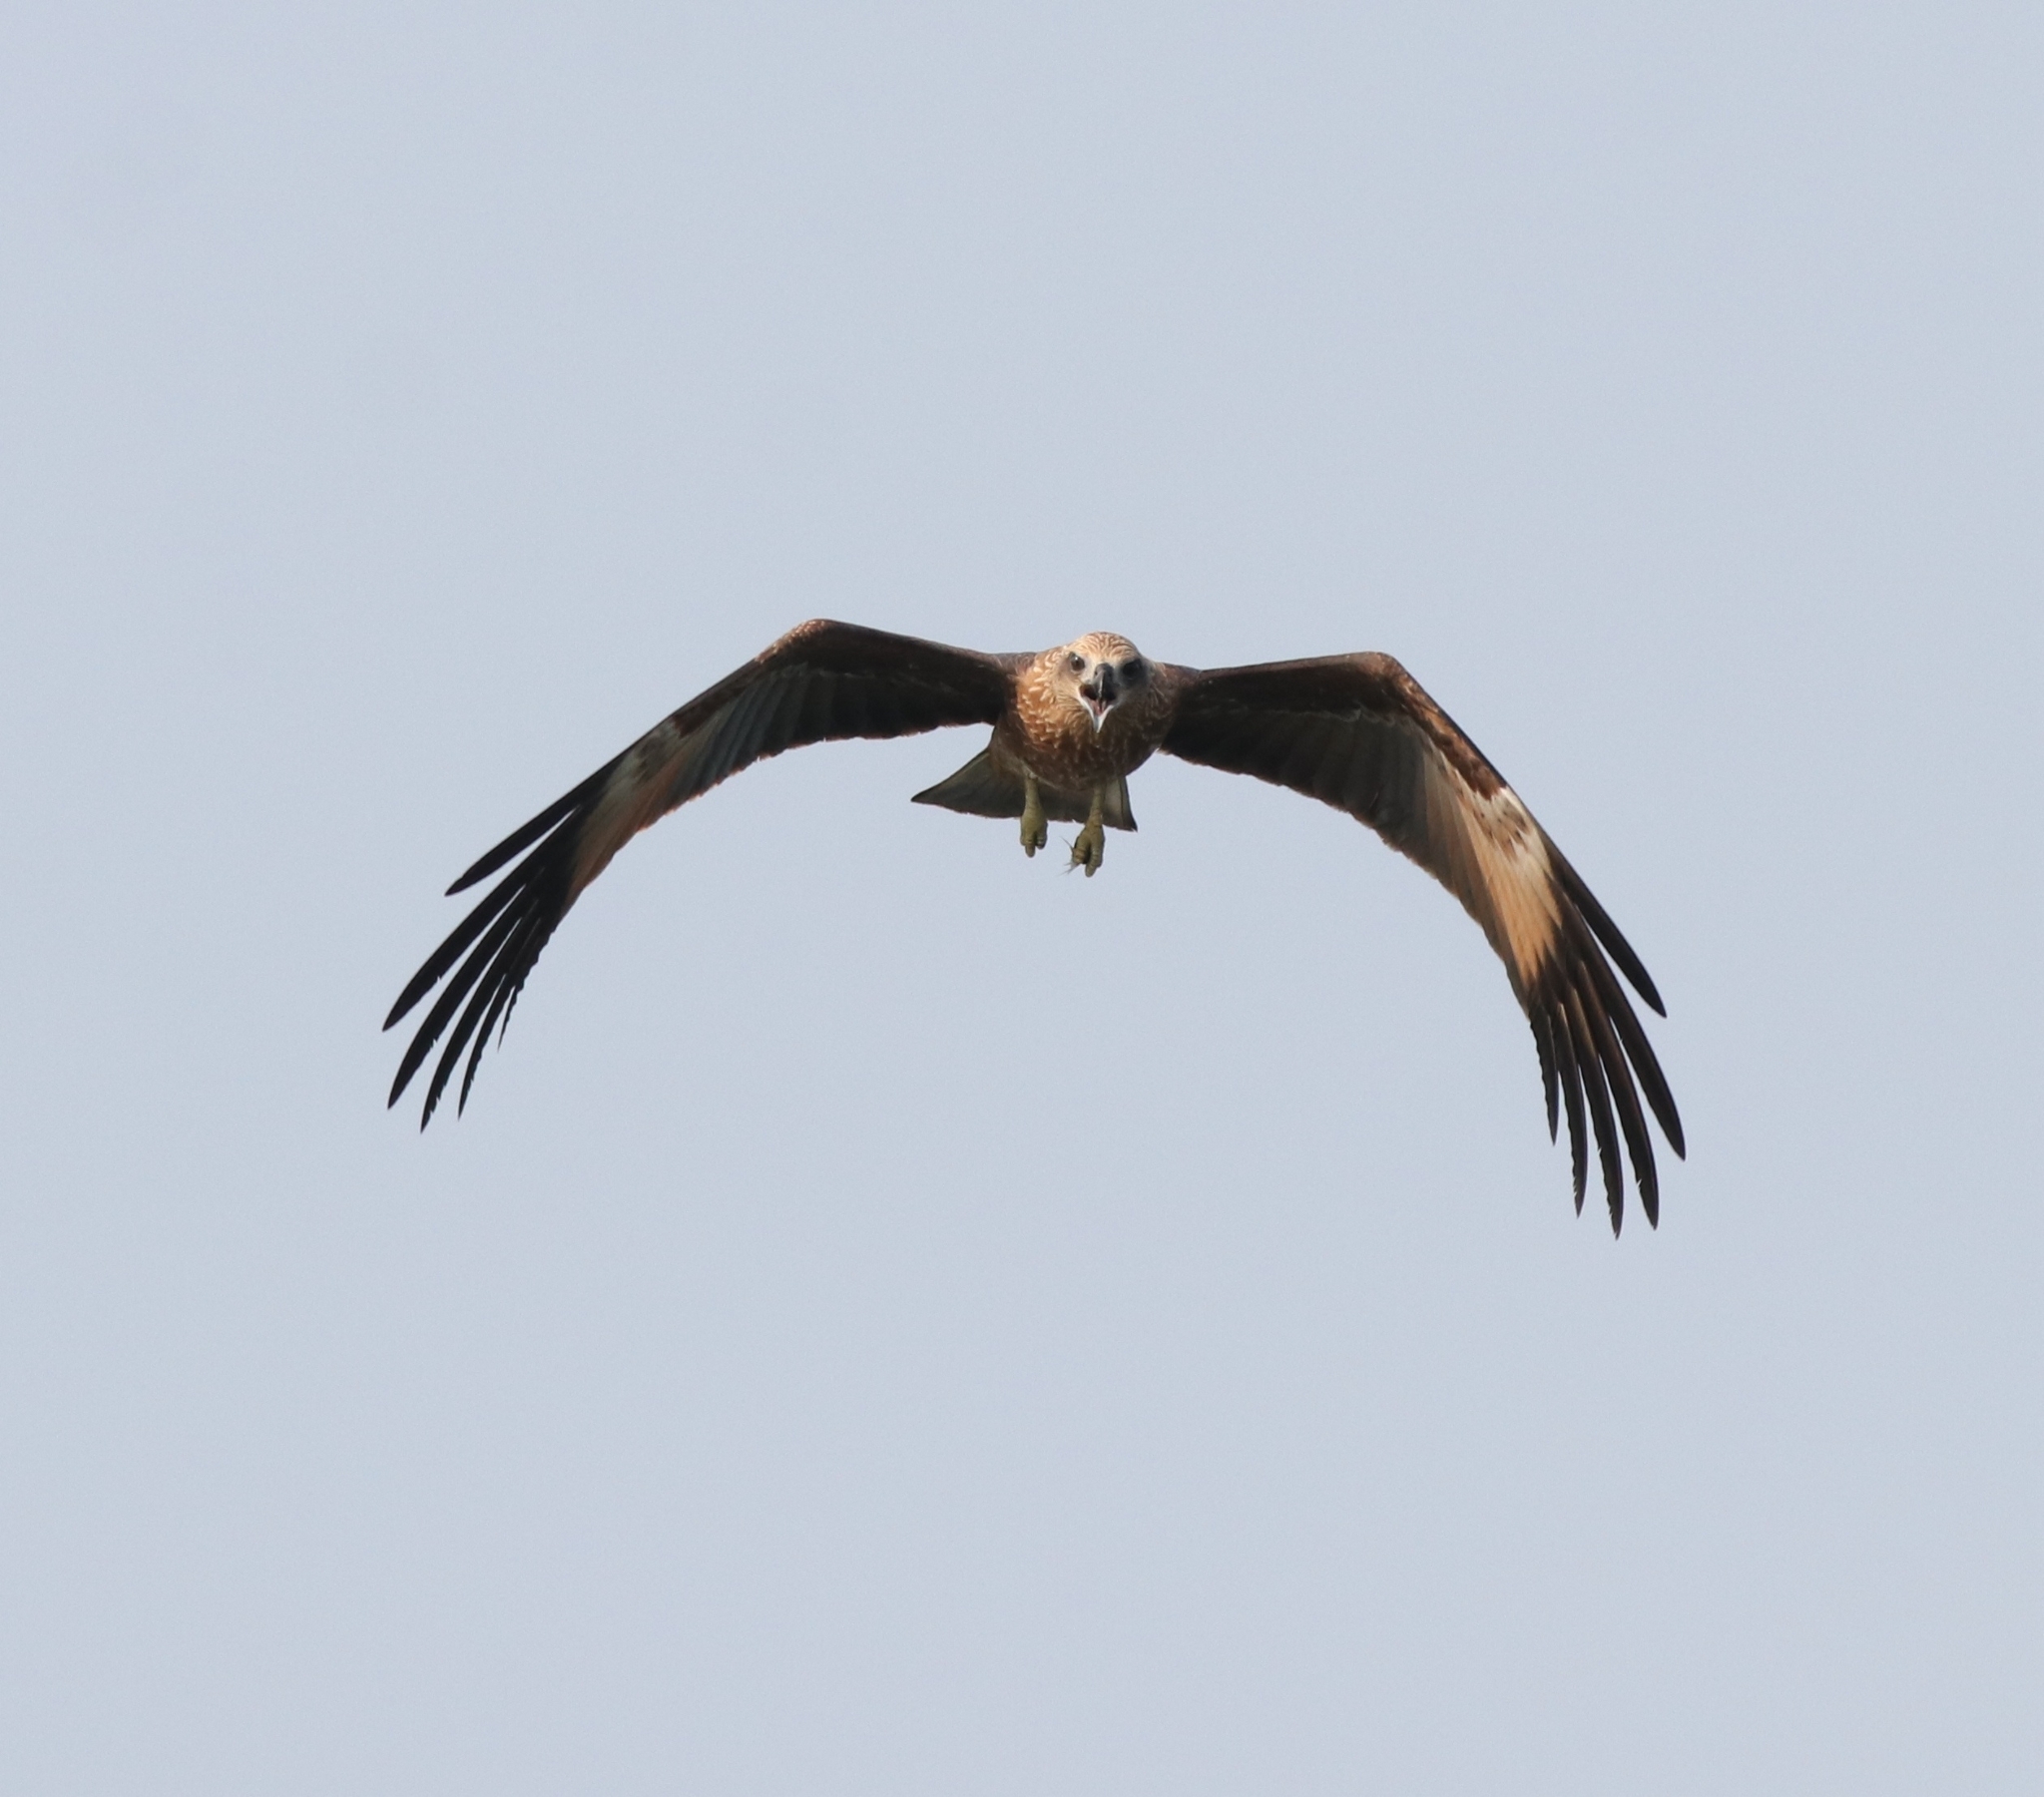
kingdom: Animalia
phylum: Chordata
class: Aves
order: Accipitriformes
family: Accipitridae
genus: Haliastur
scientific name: Haliastur indus
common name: Brahminy kite
